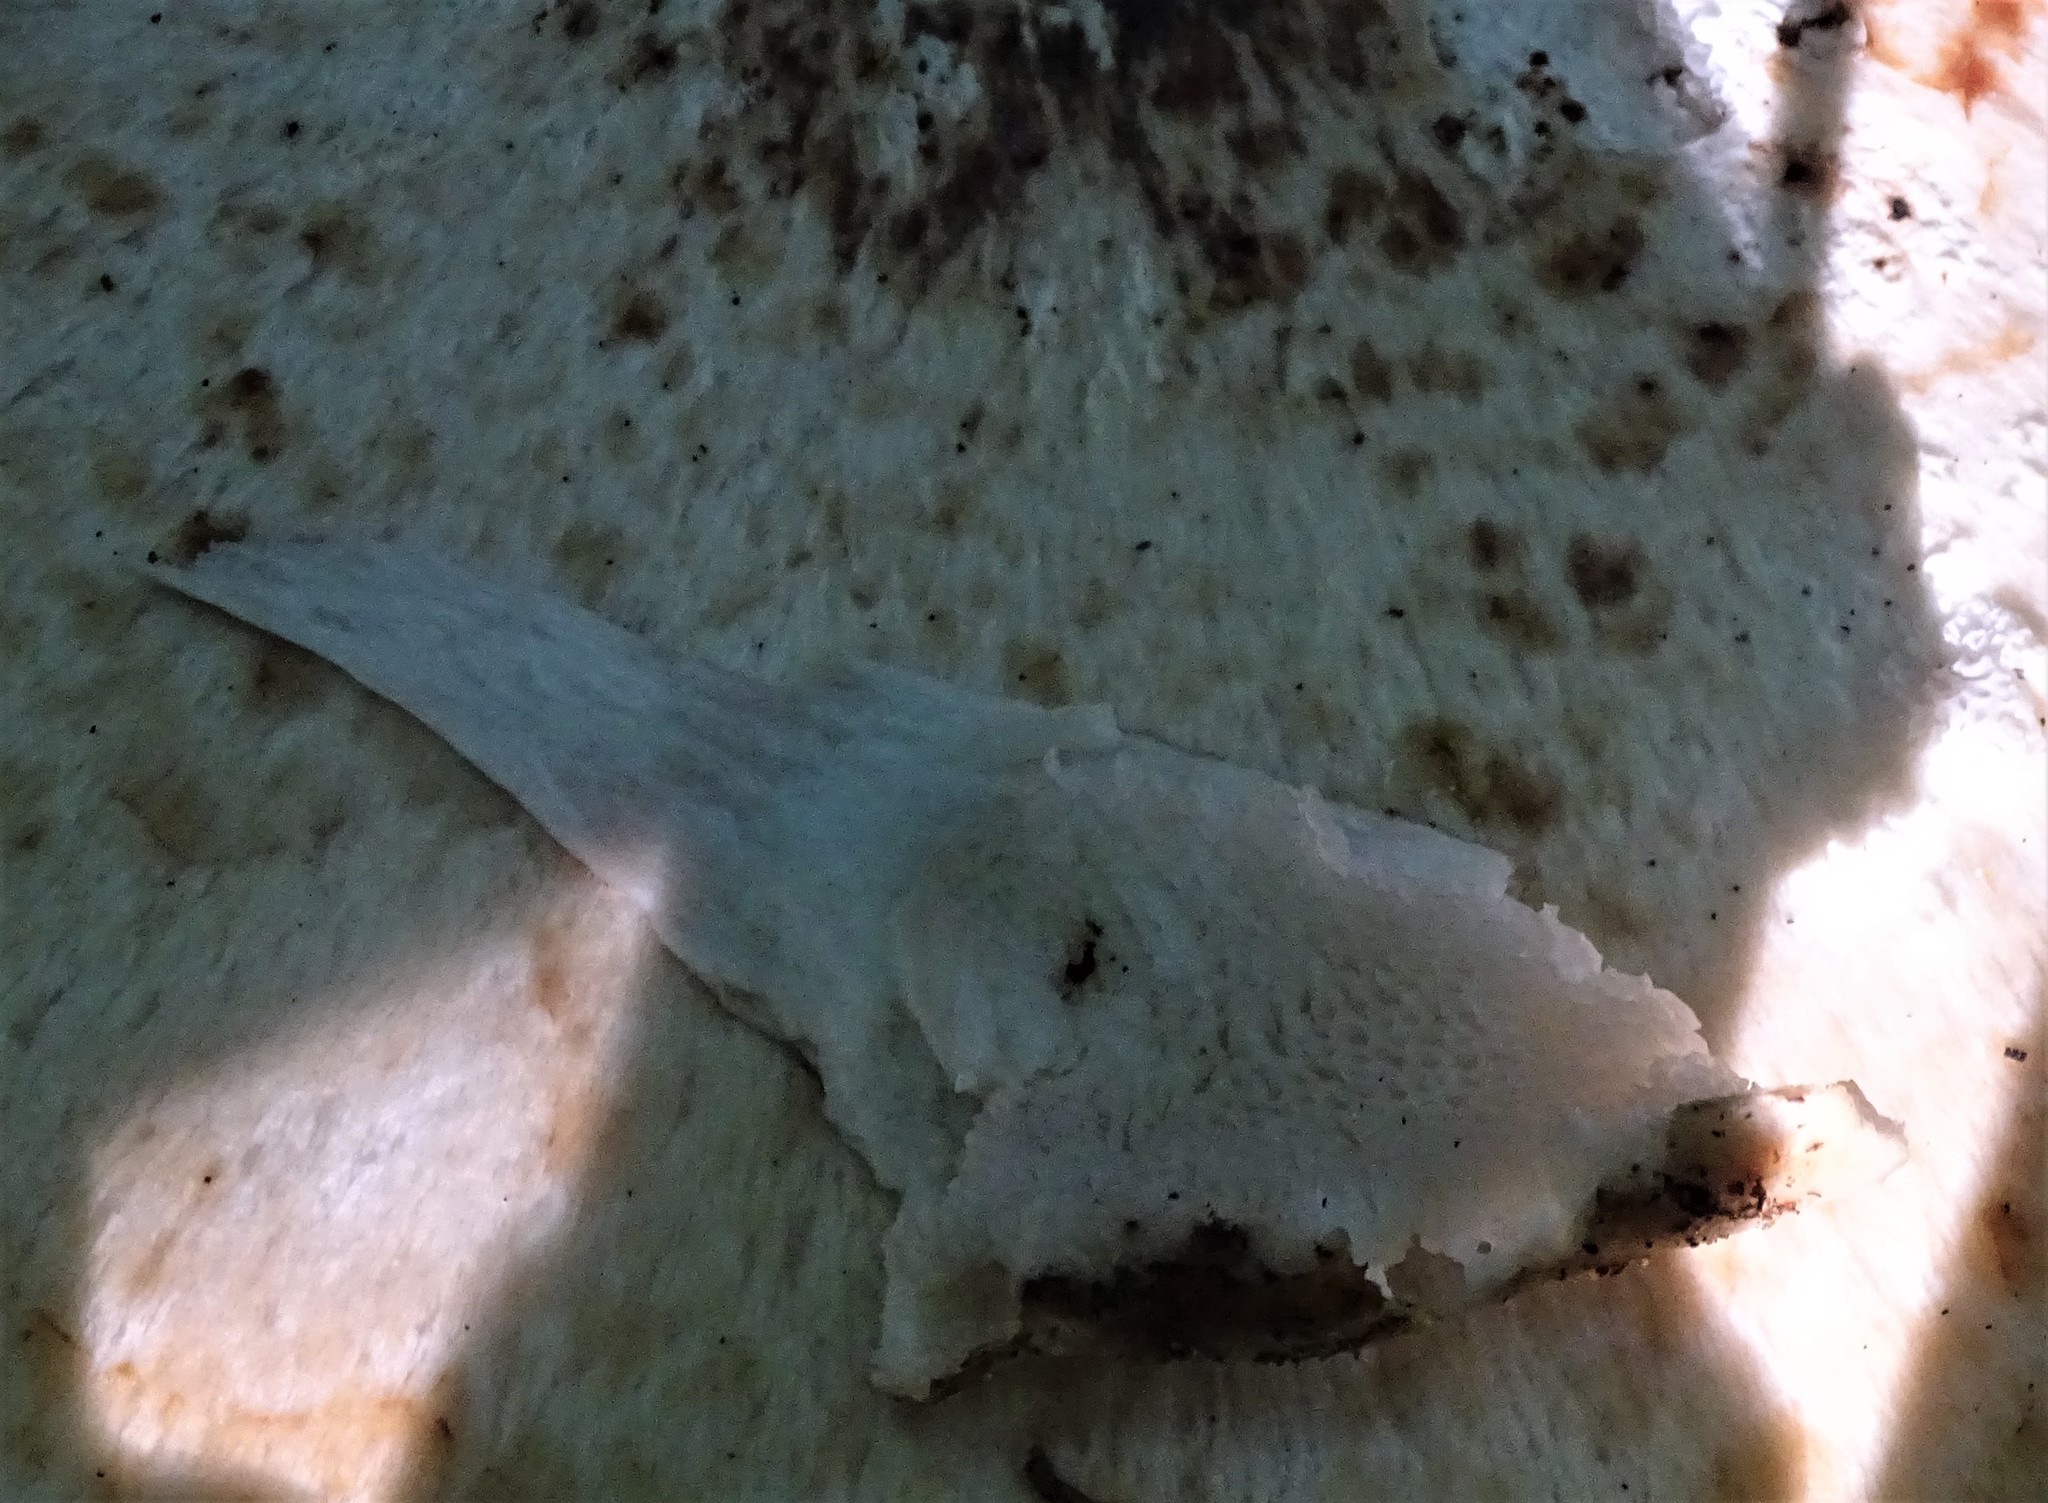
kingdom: Fungi
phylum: Basidiomycota
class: Agaricomycetes
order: Polyporales
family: Polyporaceae
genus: Cerioporus
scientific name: Cerioporus squamosus
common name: Dryad's saddle
